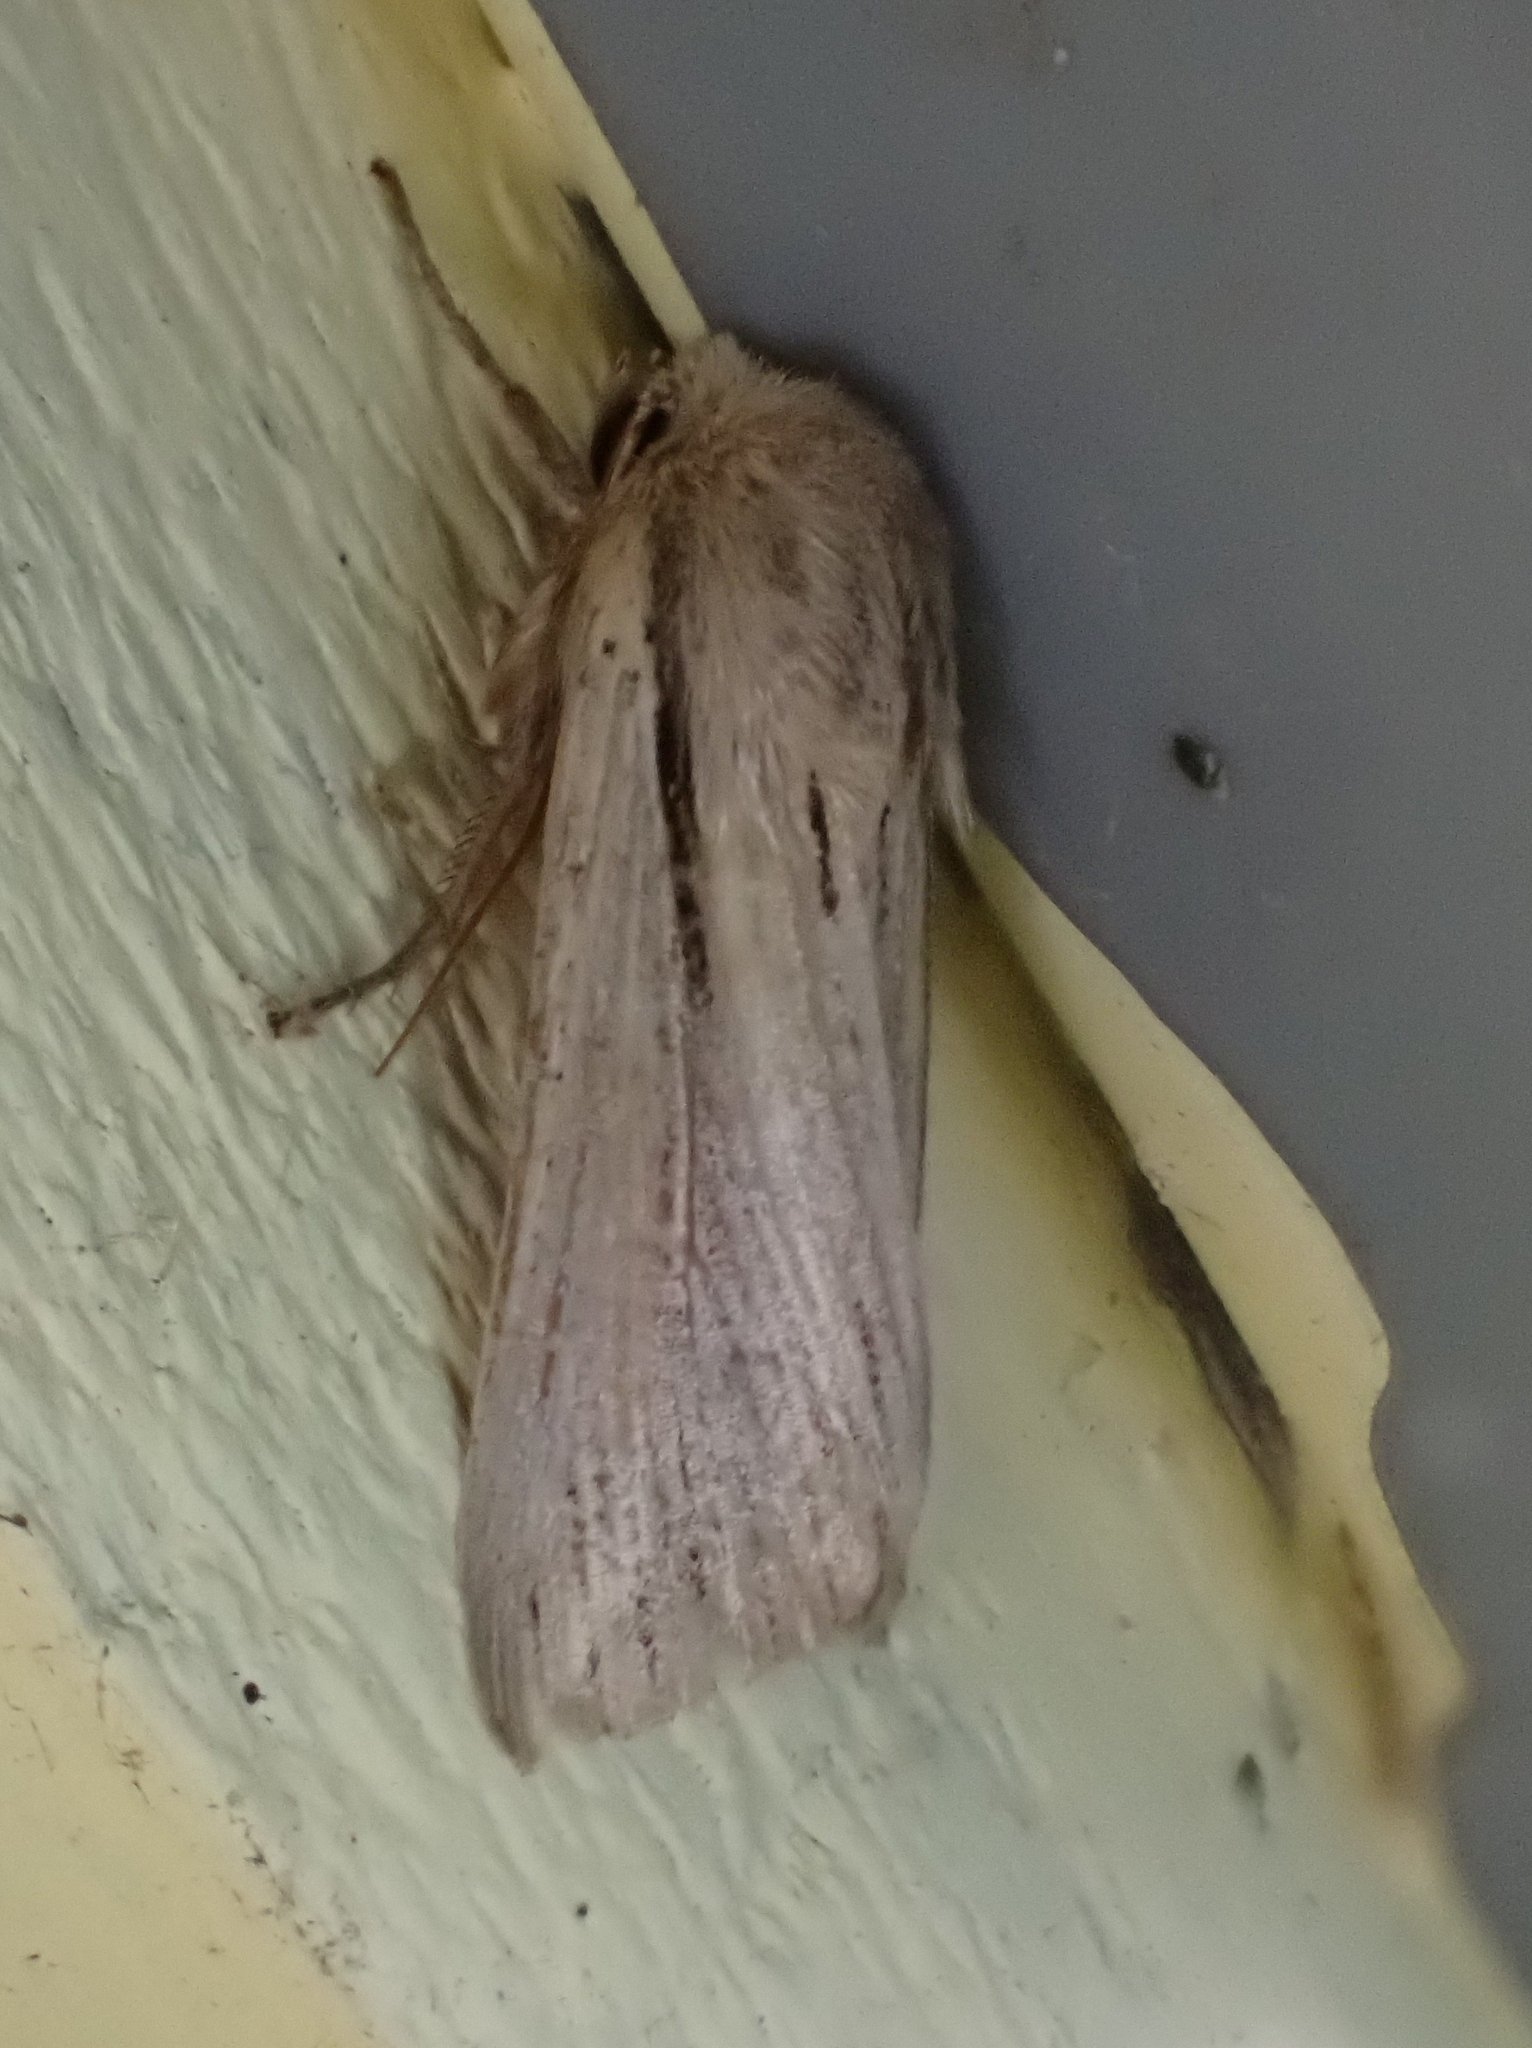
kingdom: Animalia
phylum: Arthropoda
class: Insecta
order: Lepidoptera
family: Noctuidae
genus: Leucania
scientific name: Leucania commoides
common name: Two-lined wainscot
